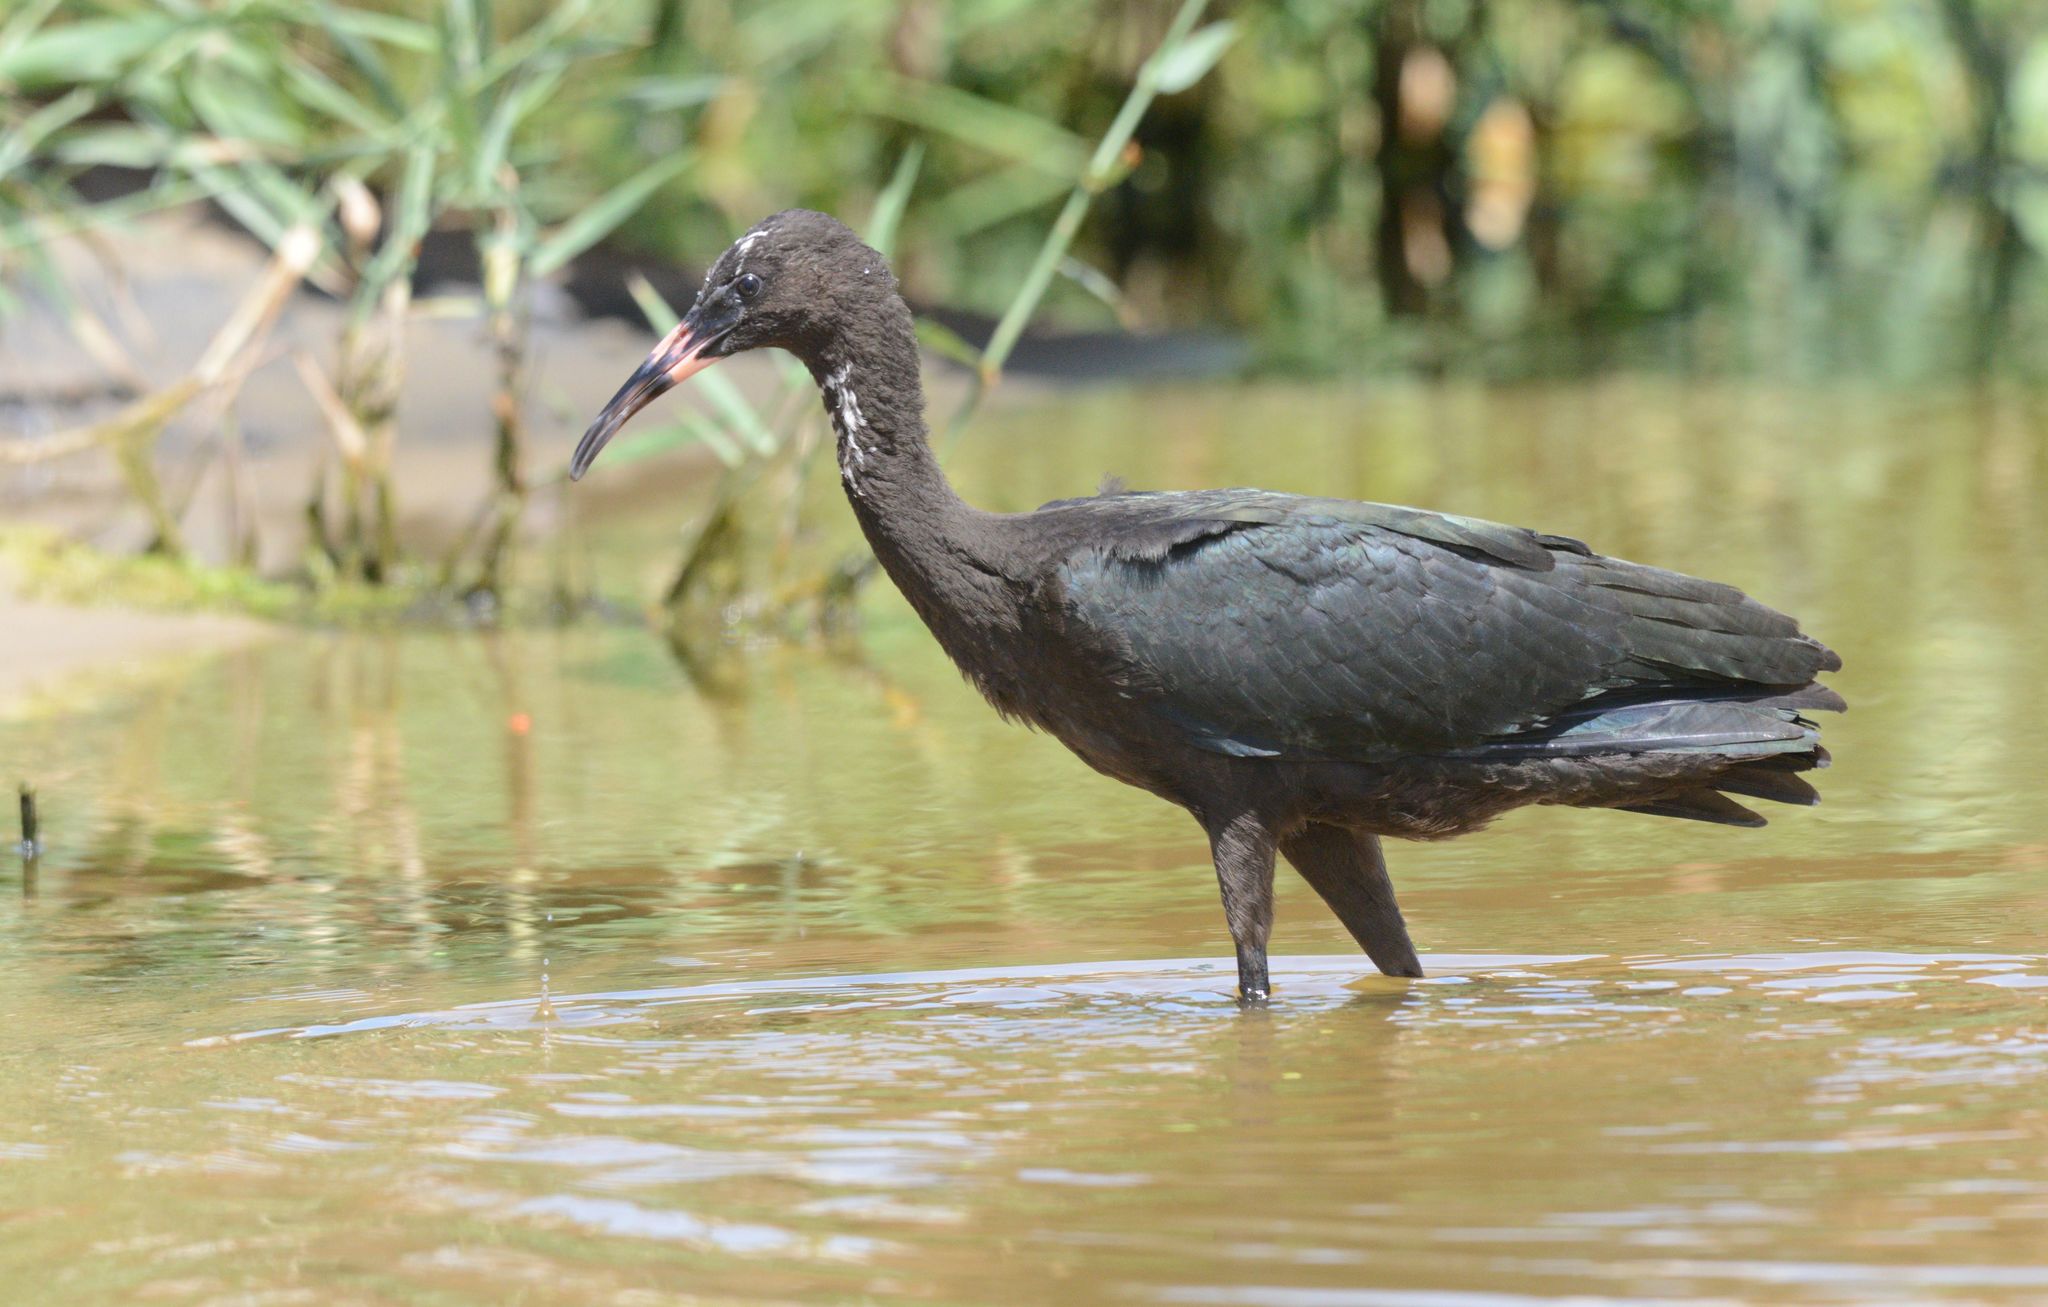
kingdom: Animalia
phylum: Chordata
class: Aves
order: Pelecaniformes
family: Threskiornithidae
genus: Plegadis
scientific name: Plegadis falcinellus
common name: Glossy ibis
